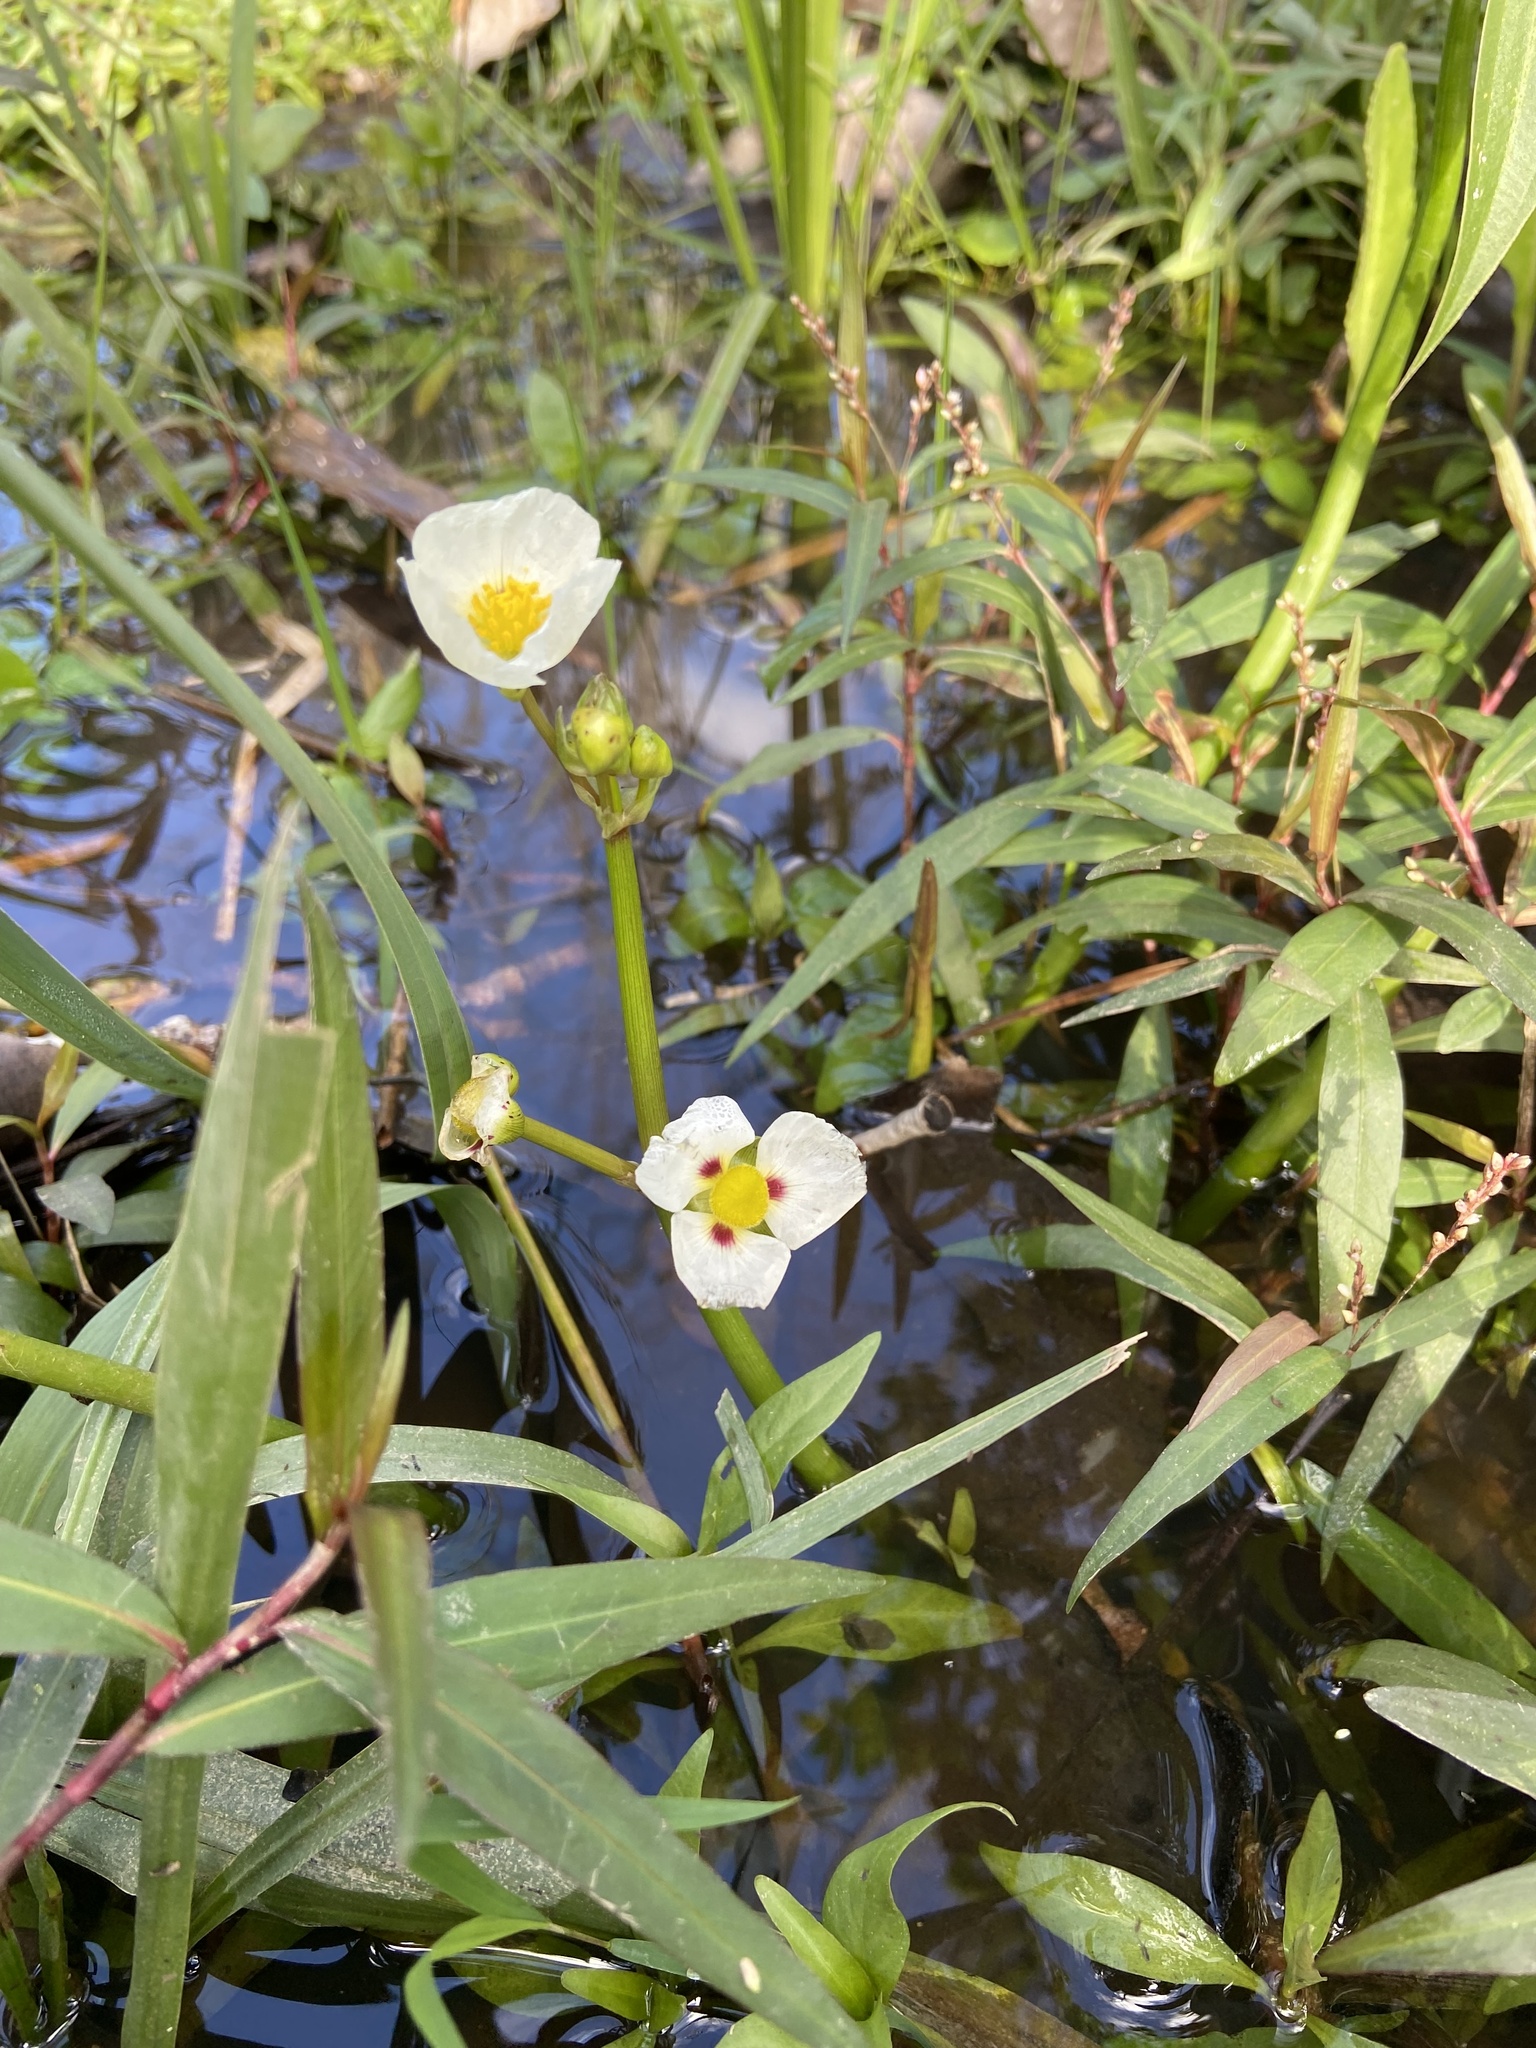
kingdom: Plantae
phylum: Tracheophyta
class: Liliopsida
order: Alismatales
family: Alismataceae
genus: Sagittaria
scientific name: Sagittaria montevidensis
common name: Giant arrowhead
